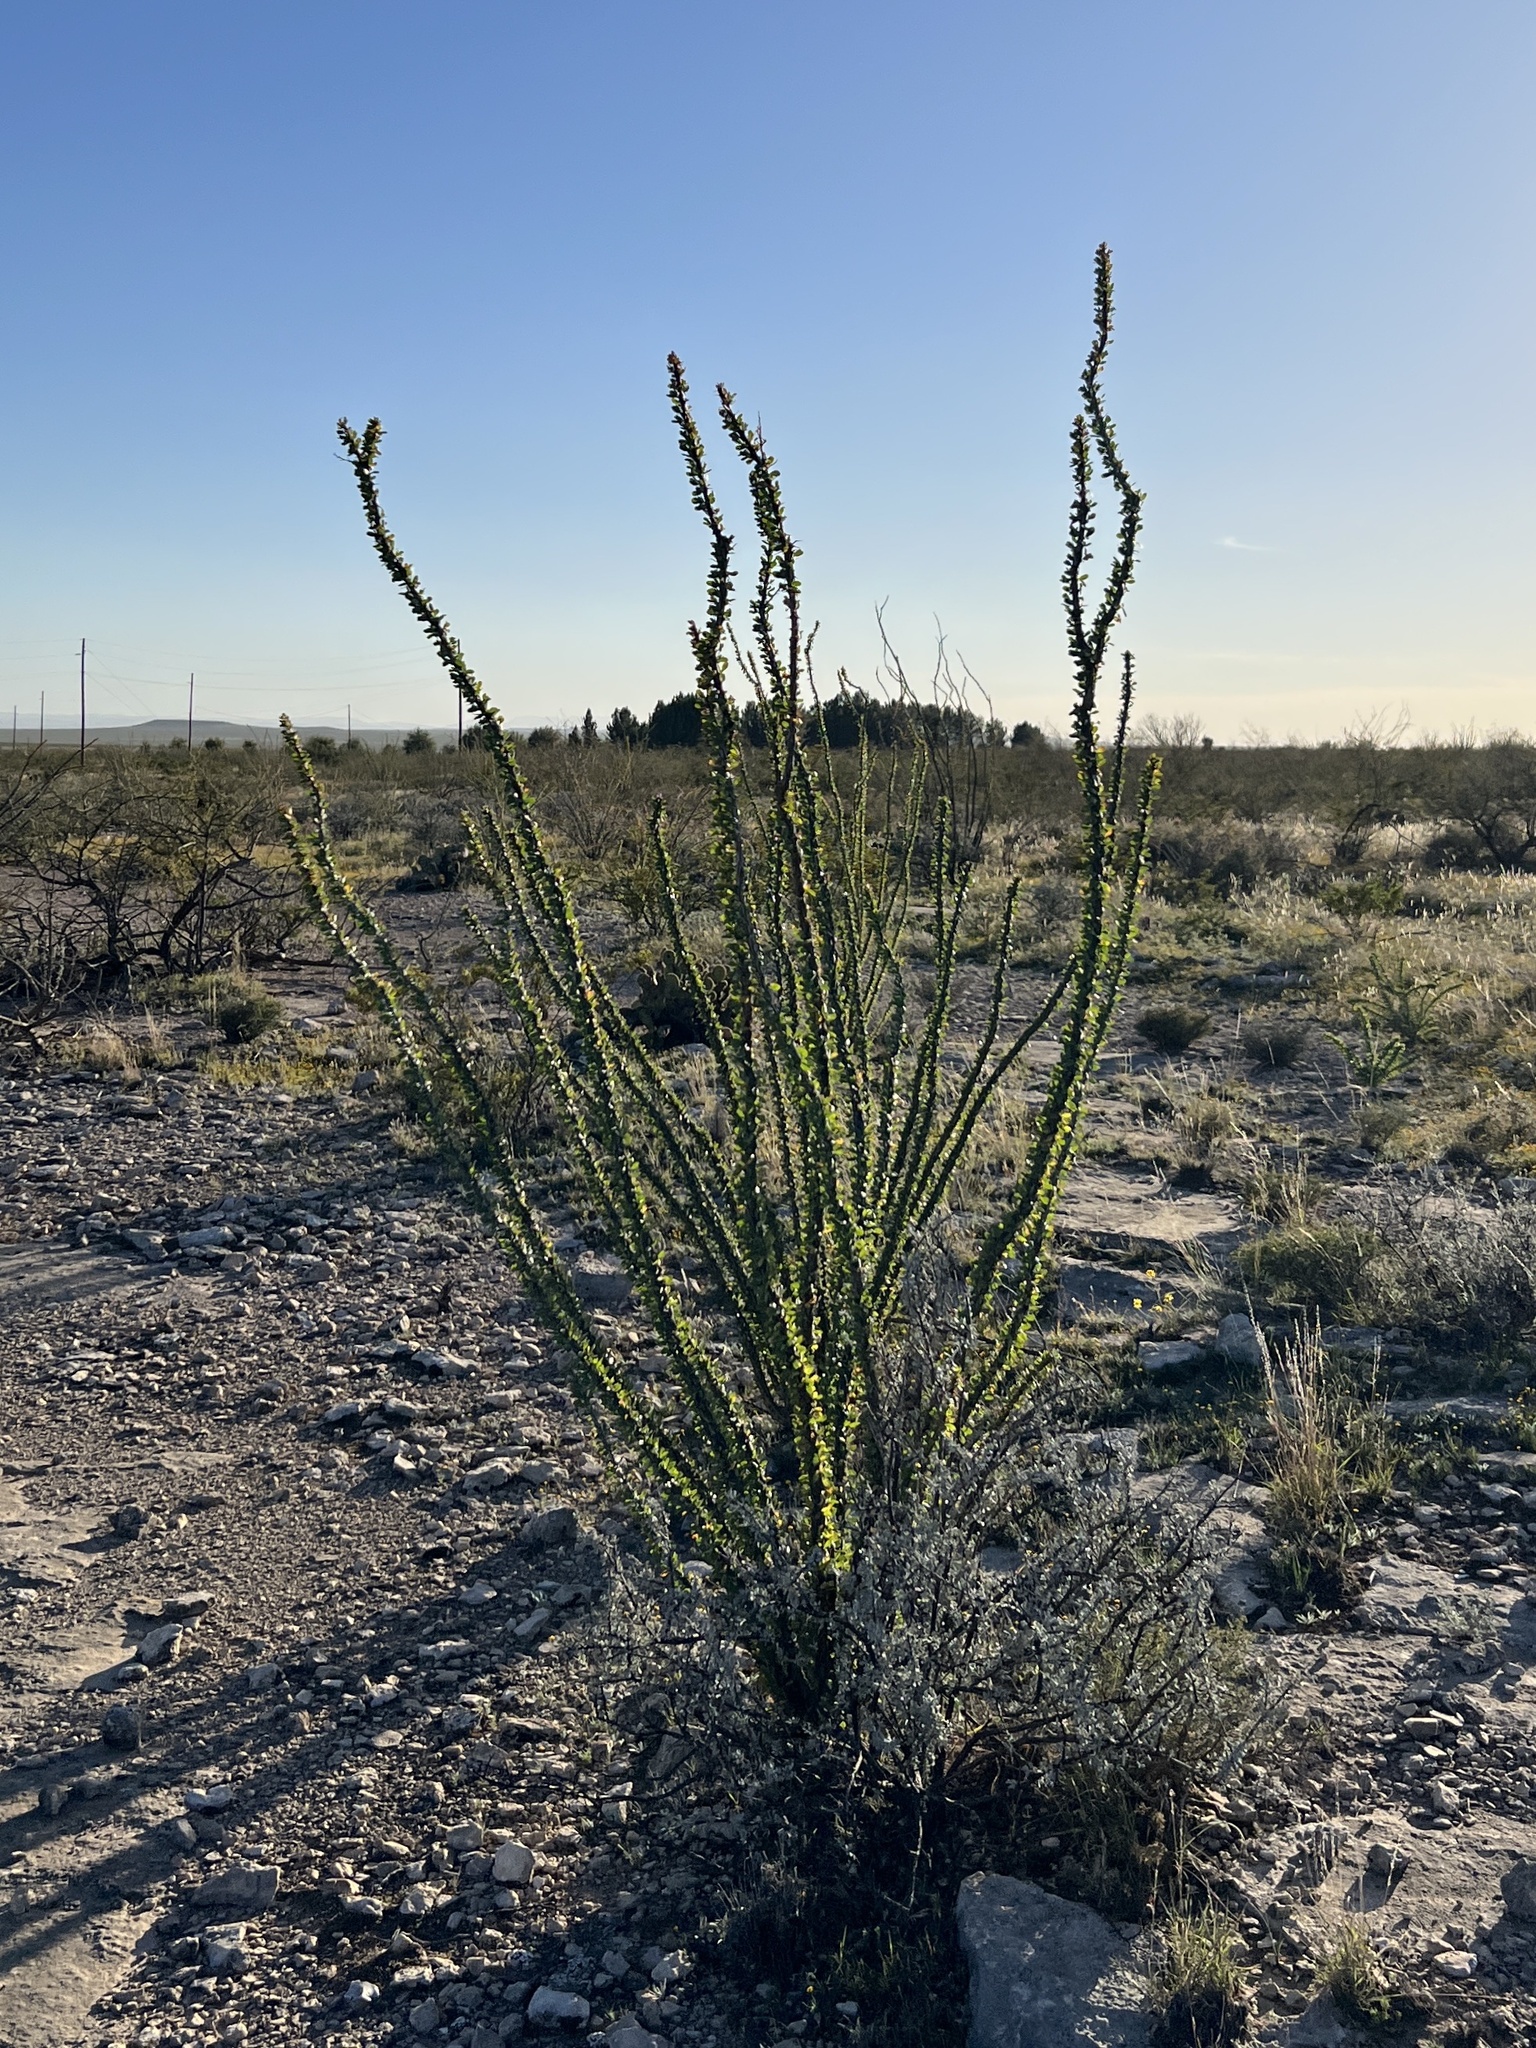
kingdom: Plantae
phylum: Tracheophyta
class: Magnoliopsida
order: Ericales
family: Fouquieriaceae
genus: Fouquieria
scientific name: Fouquieria splendens
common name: Vine-cactus
